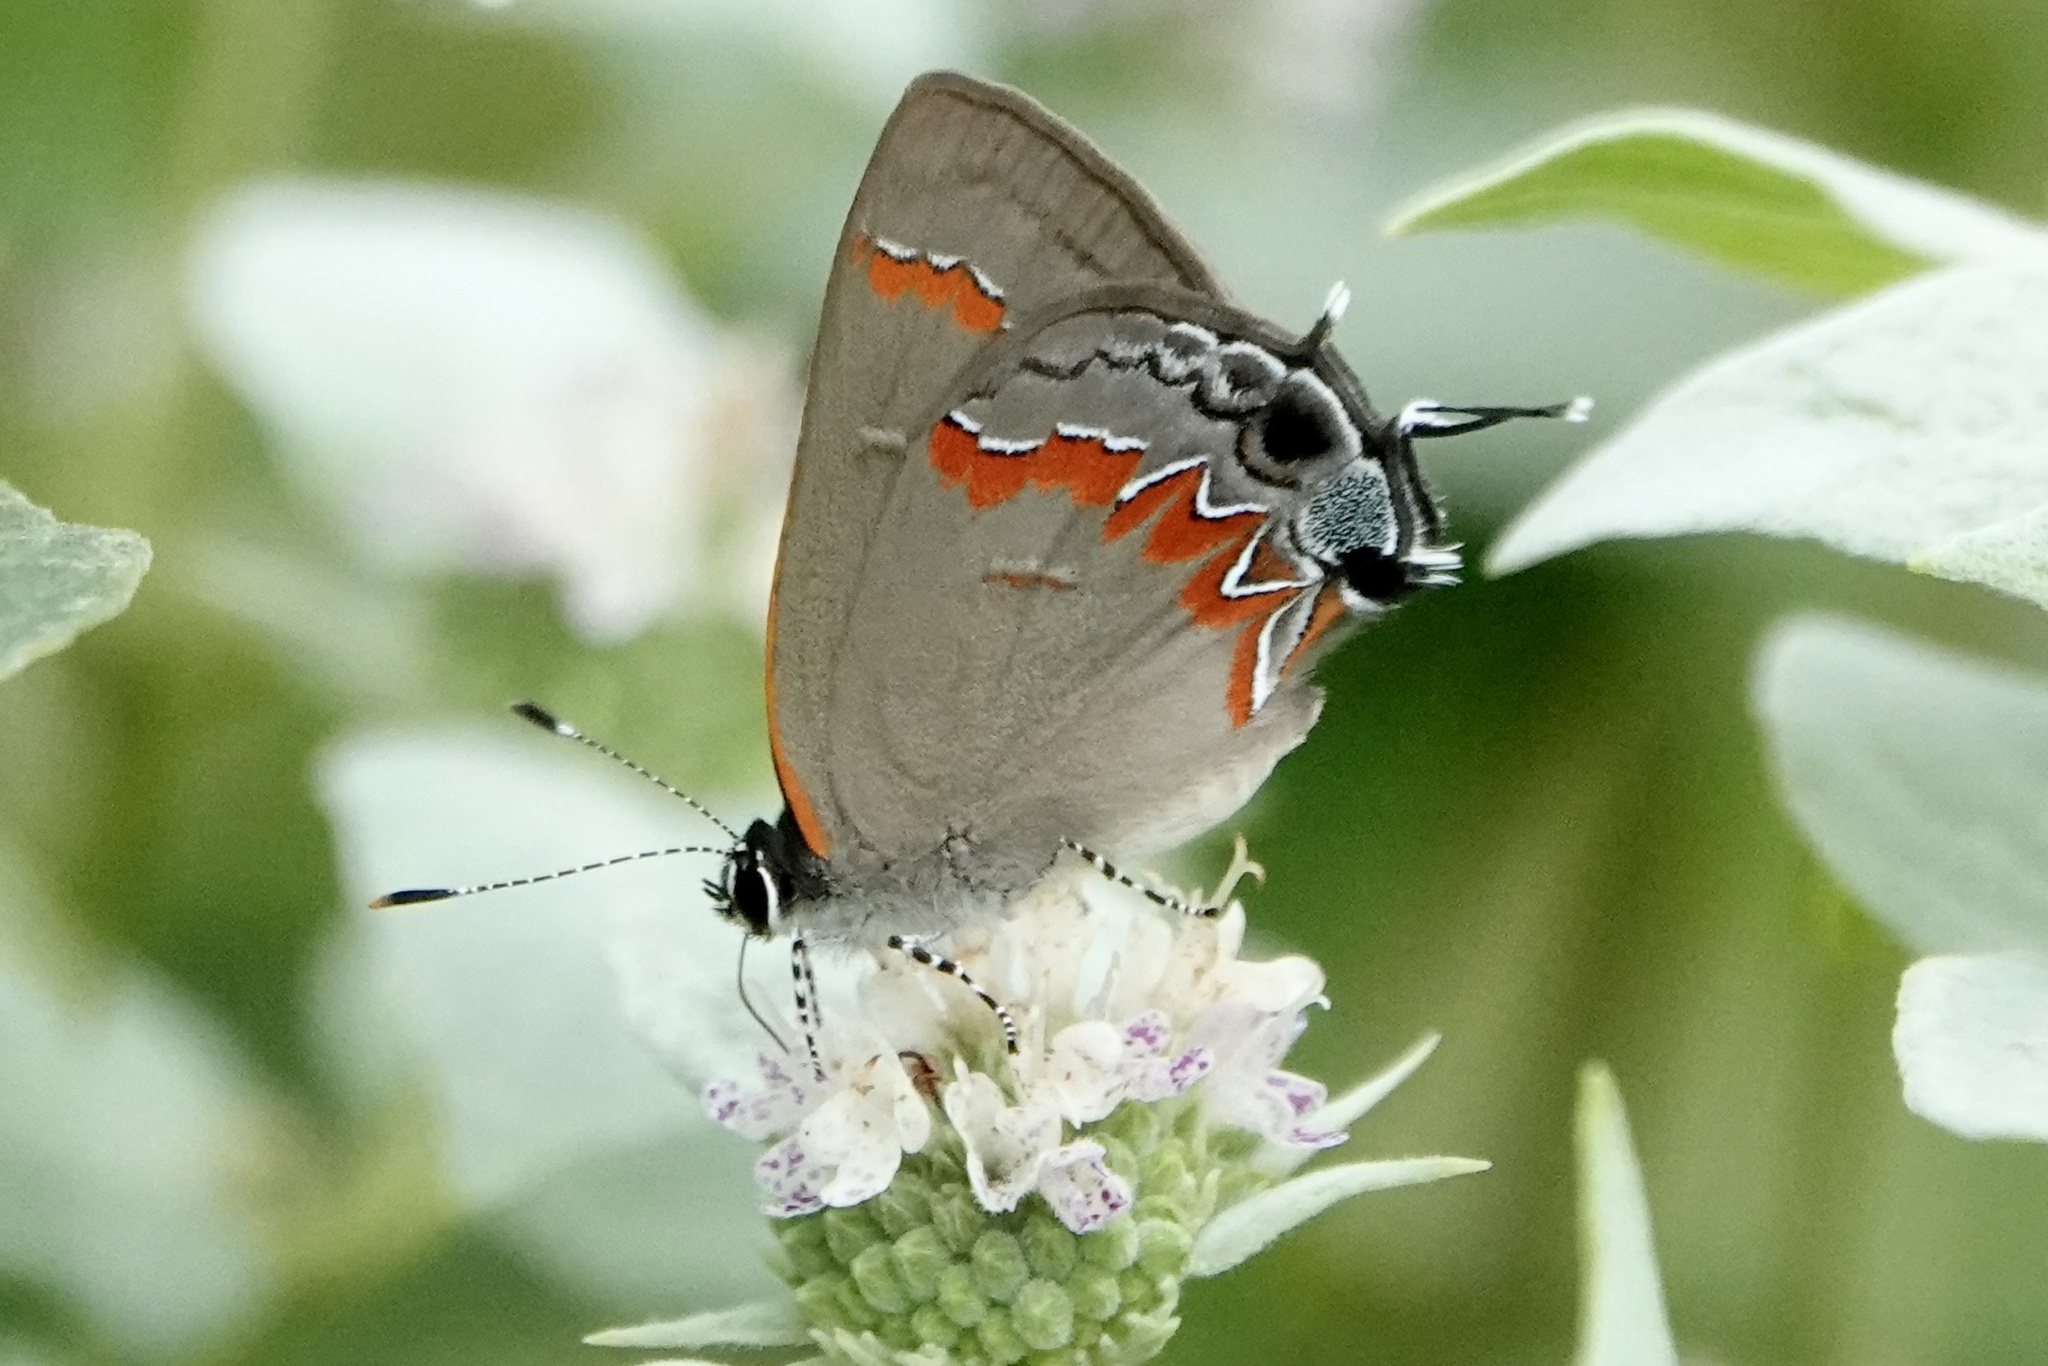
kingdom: Animalia
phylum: Arthropoda
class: Insecta
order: Lepidoptera
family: Lycaenidae
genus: Calycopis
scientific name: Calycopis cecrops
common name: Red-banded hairstreak
